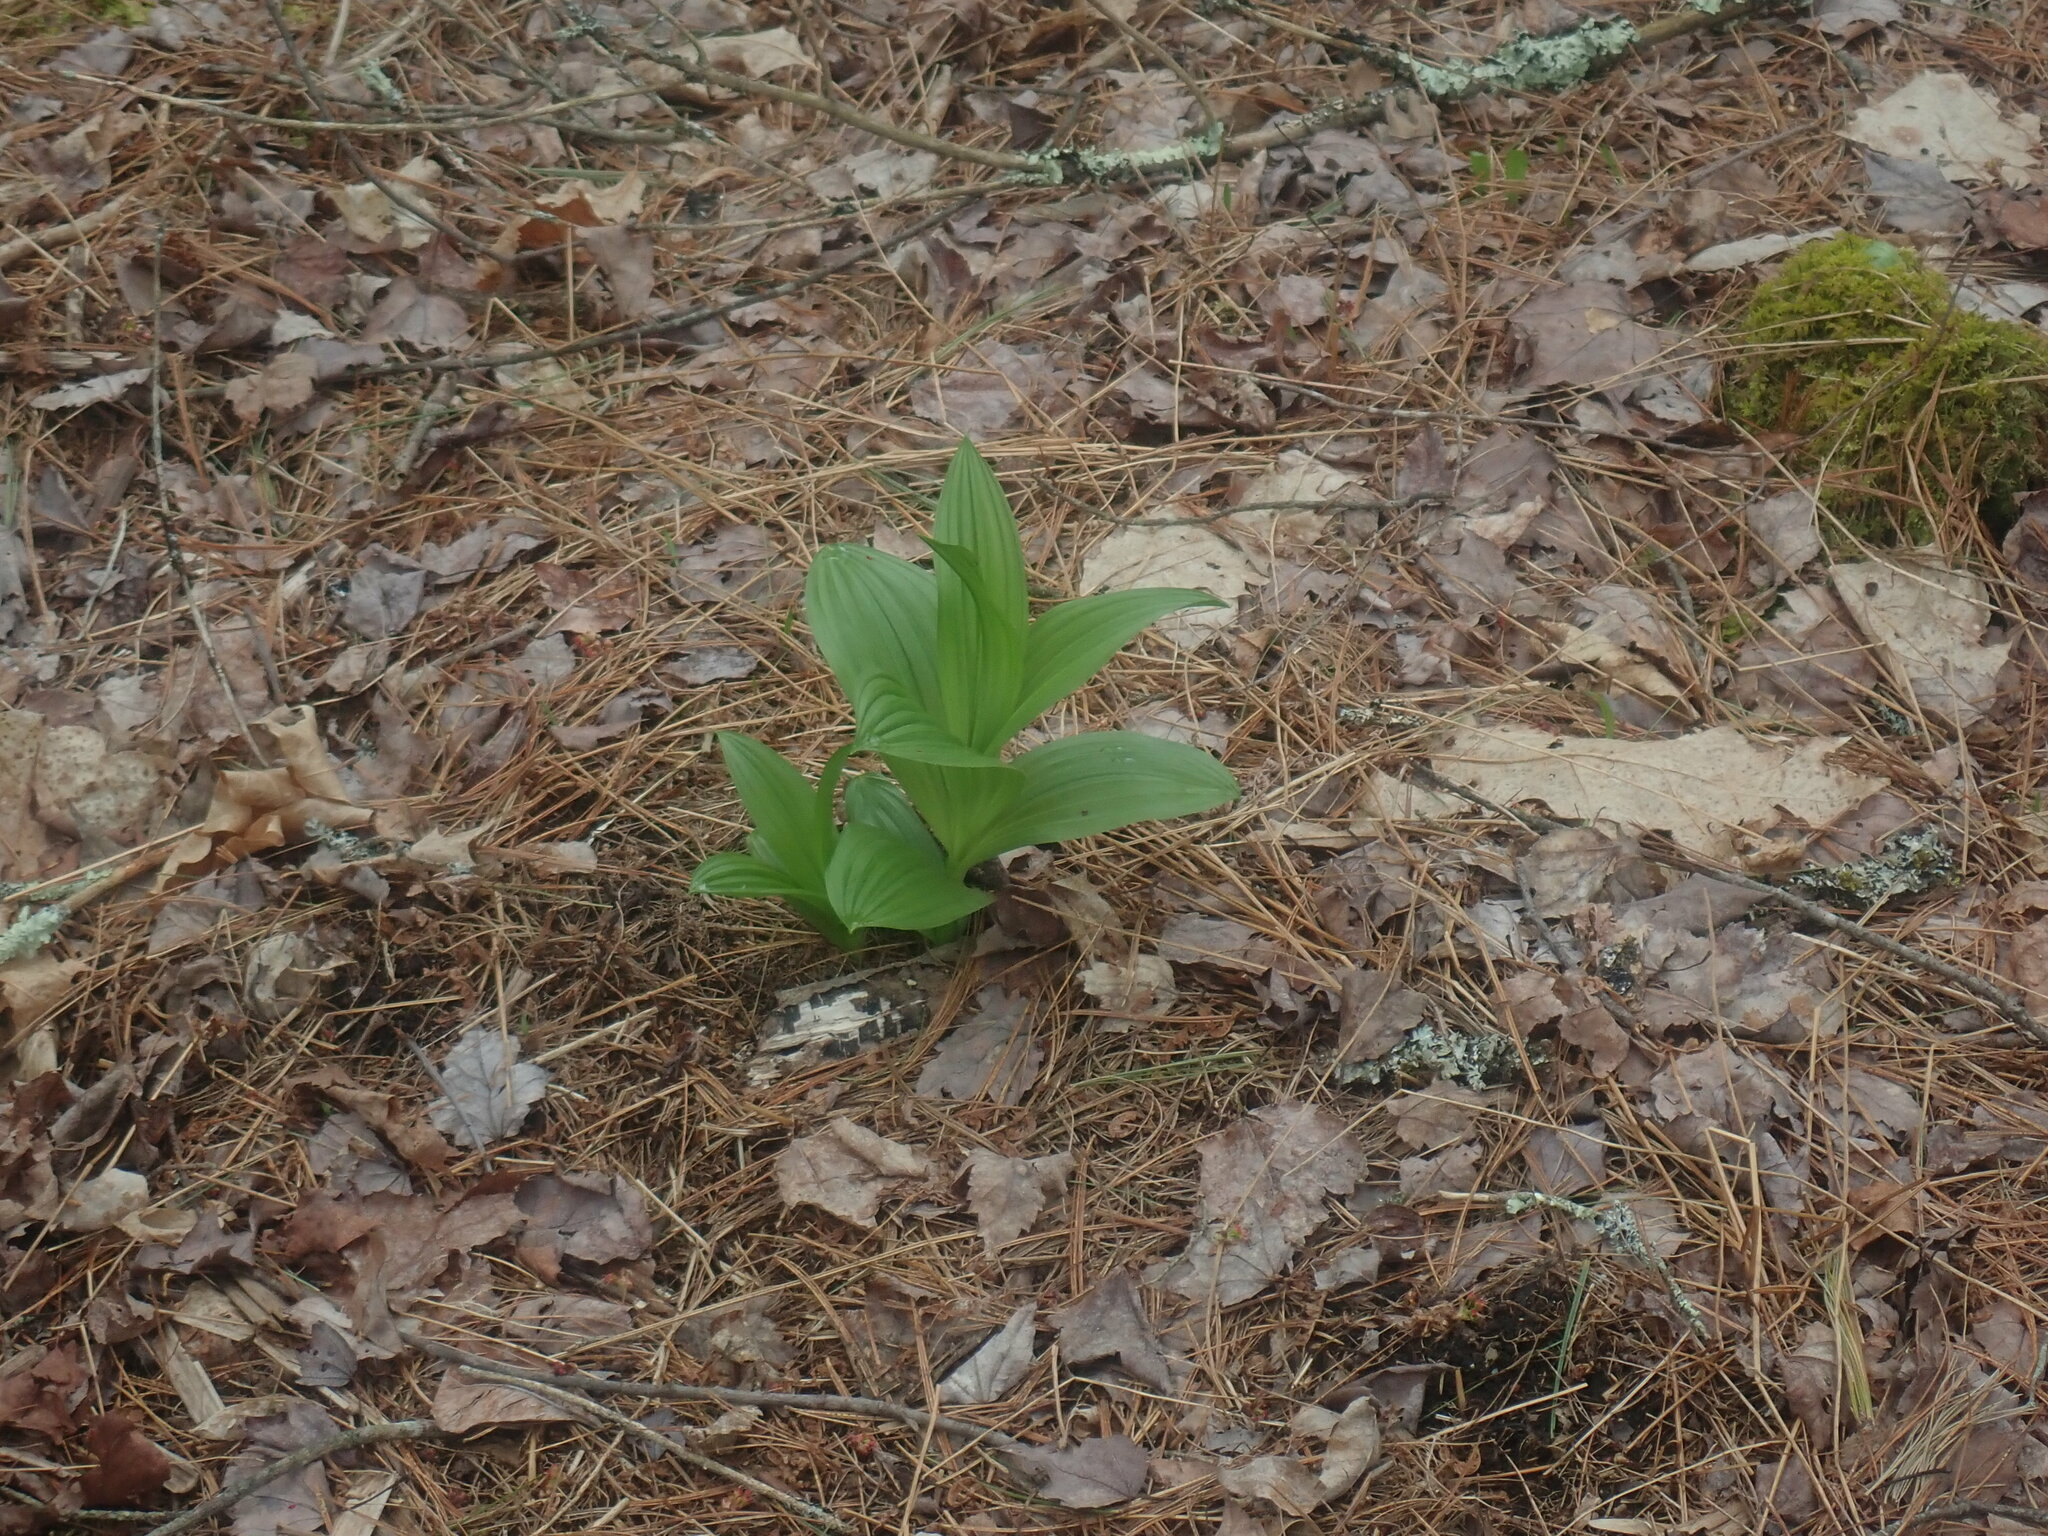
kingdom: Plantae
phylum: Tracheophyta
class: Liliopsida
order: Liliales
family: Melanthiaceae
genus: Veratrum
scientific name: Veratrum viride
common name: American false hellebore
